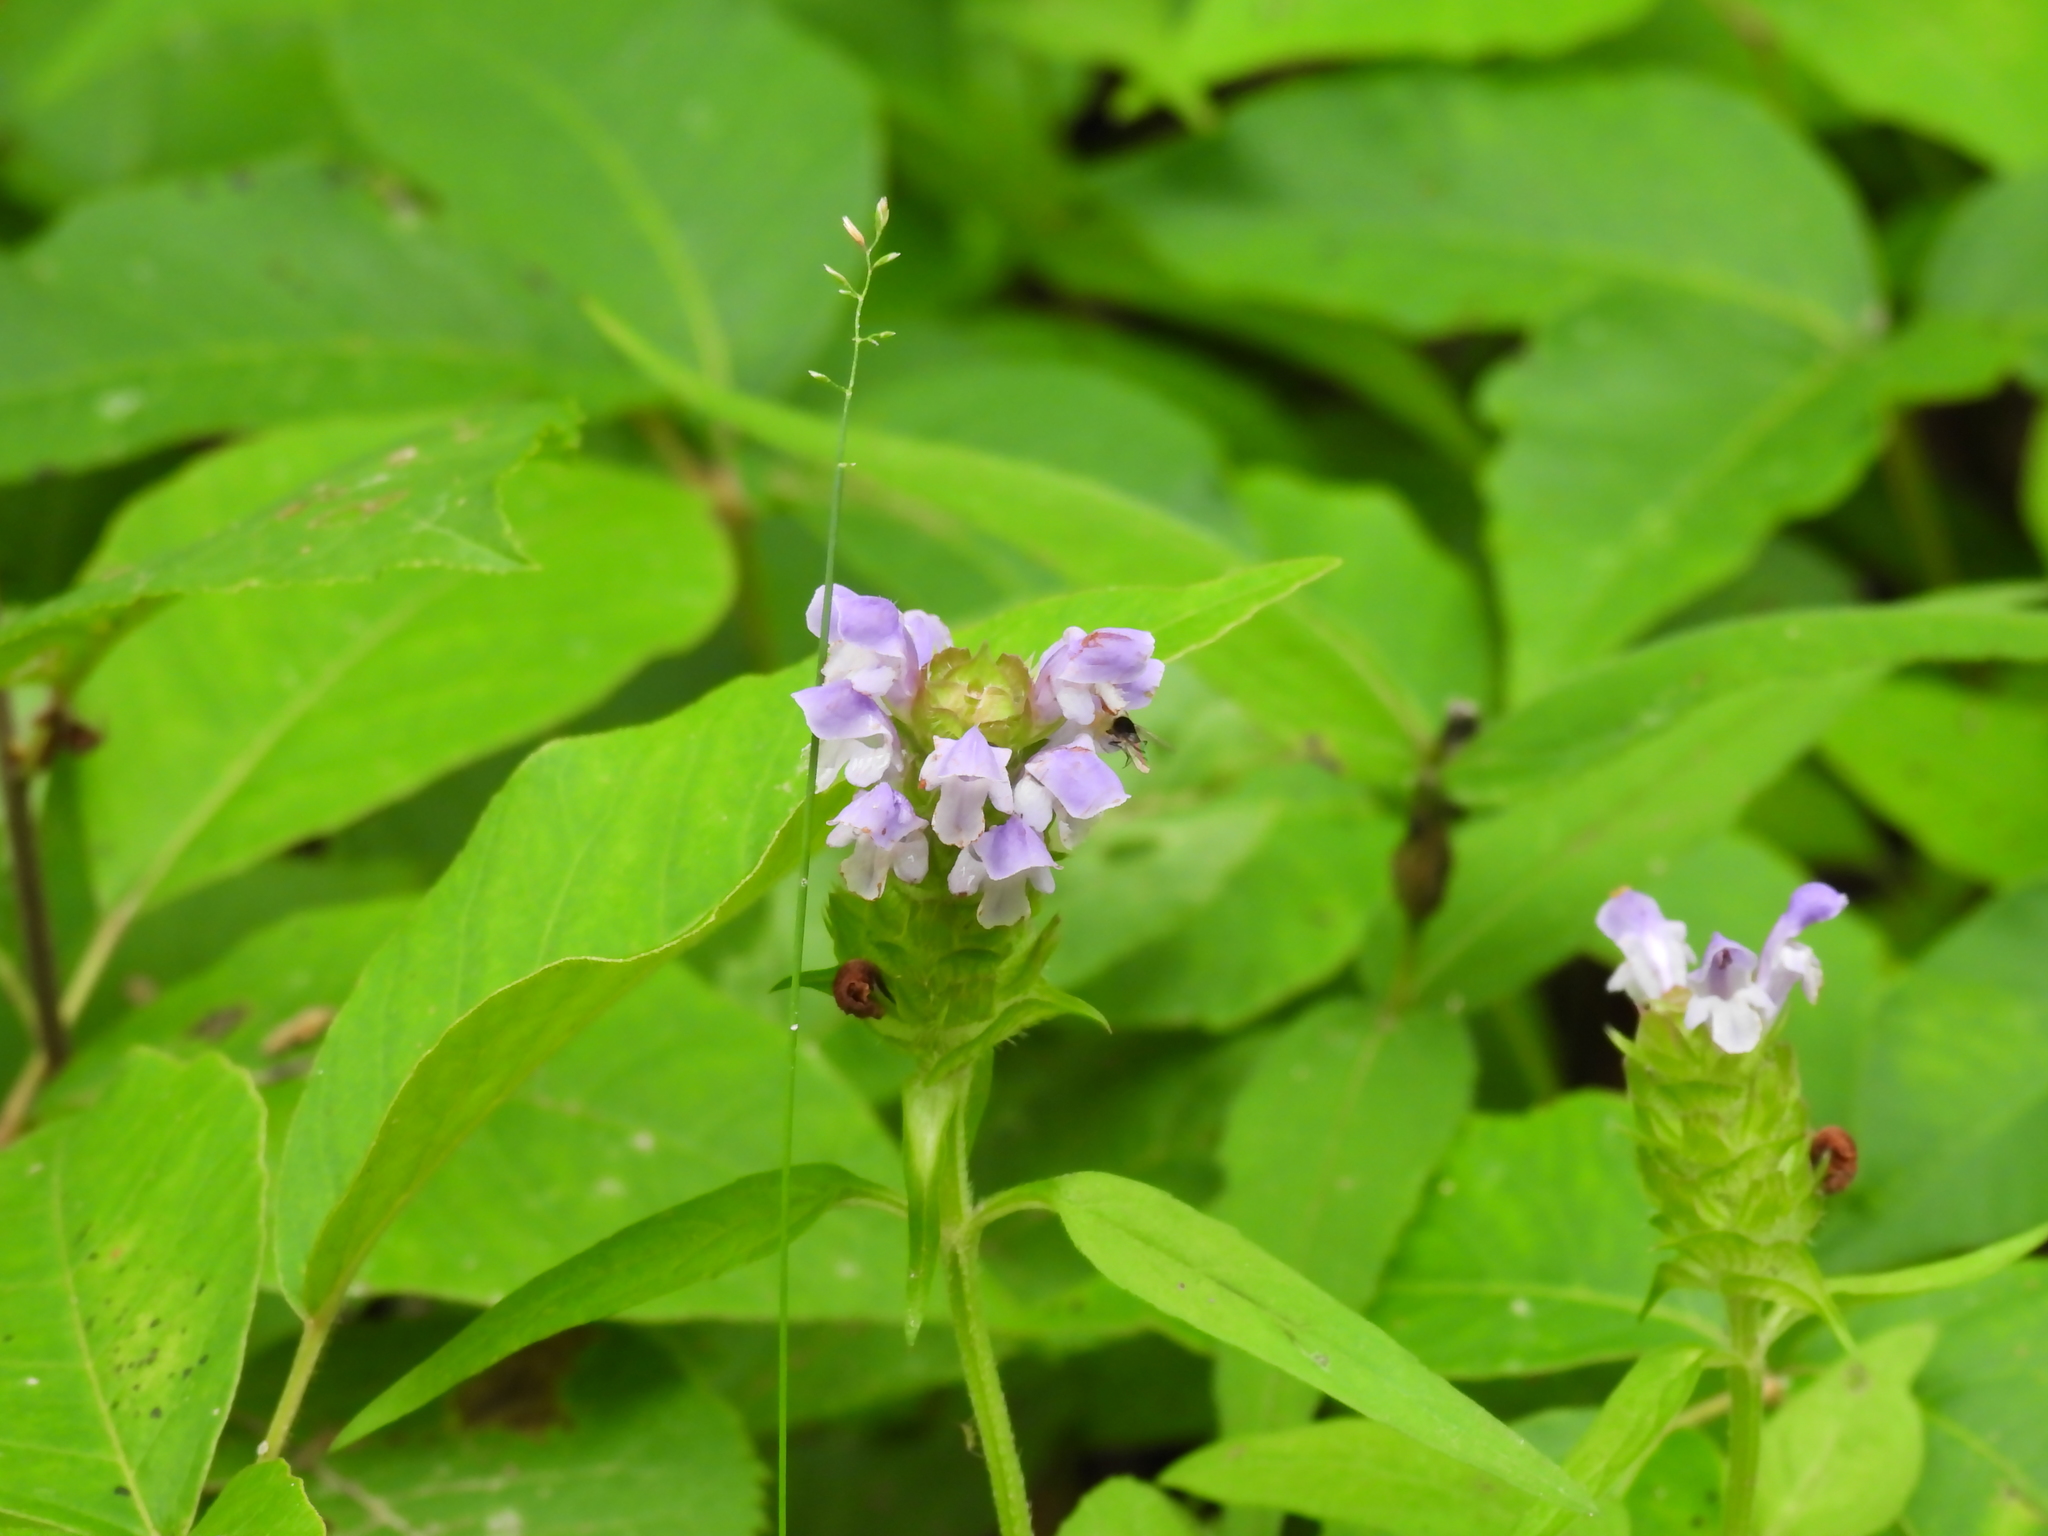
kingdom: Plantae
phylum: Tracheophyta
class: Magnoliopsida
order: Lamiales
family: Lamiaceae
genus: Prunella
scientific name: Prunella vulgaris
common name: Heal-all
